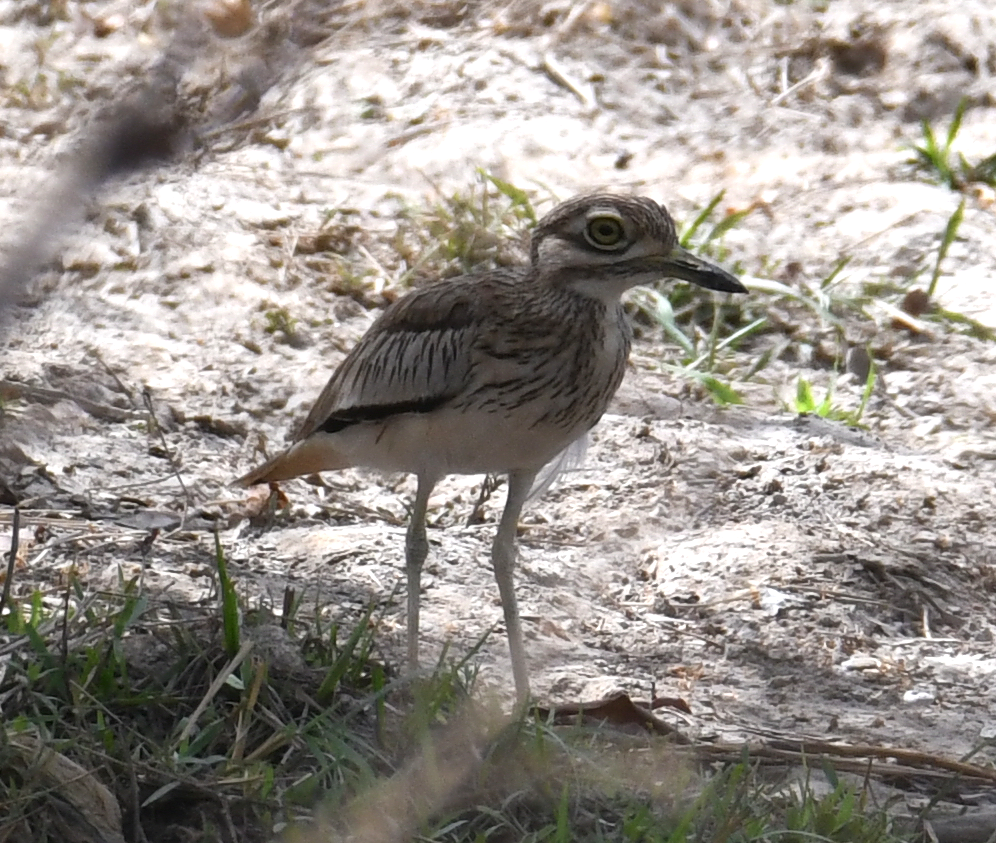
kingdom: Animalia
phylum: Chordata
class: Aves
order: Charadriiformes
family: Burhinidae
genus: Burhinus
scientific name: Burhinus senegalensis
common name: Senegal thick-knee
